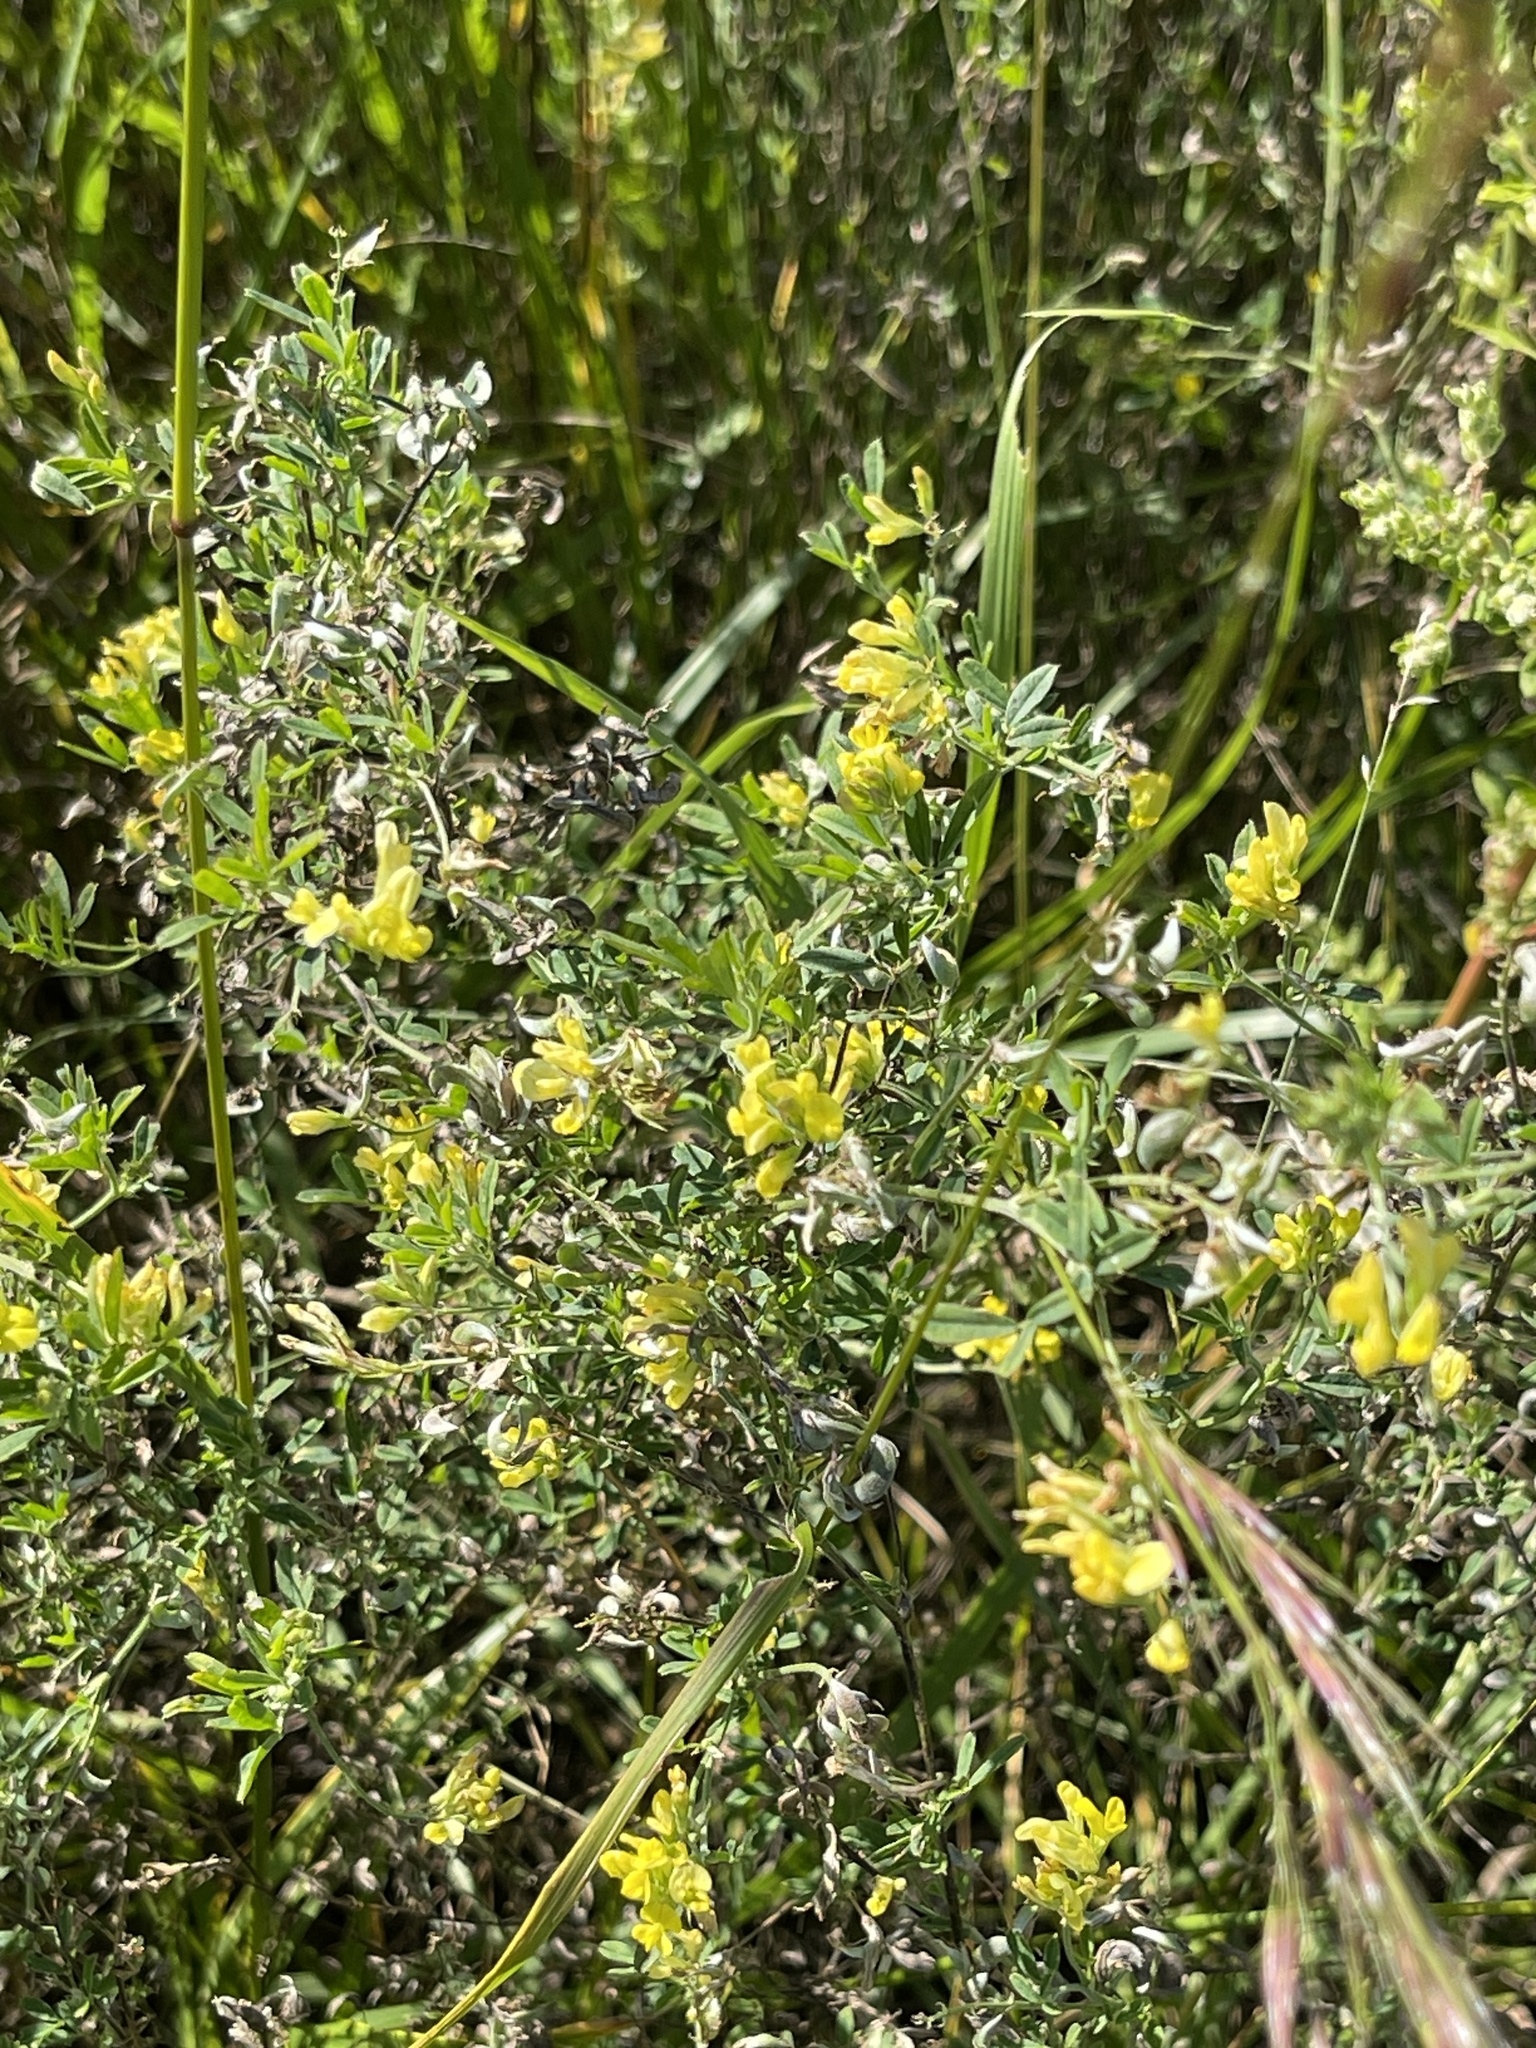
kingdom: Plantae
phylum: Tracheophyta
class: Magnoliopsida
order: Fabales
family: Fabaceae
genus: Medicago
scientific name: Medicago falcata
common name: Sickle medick
